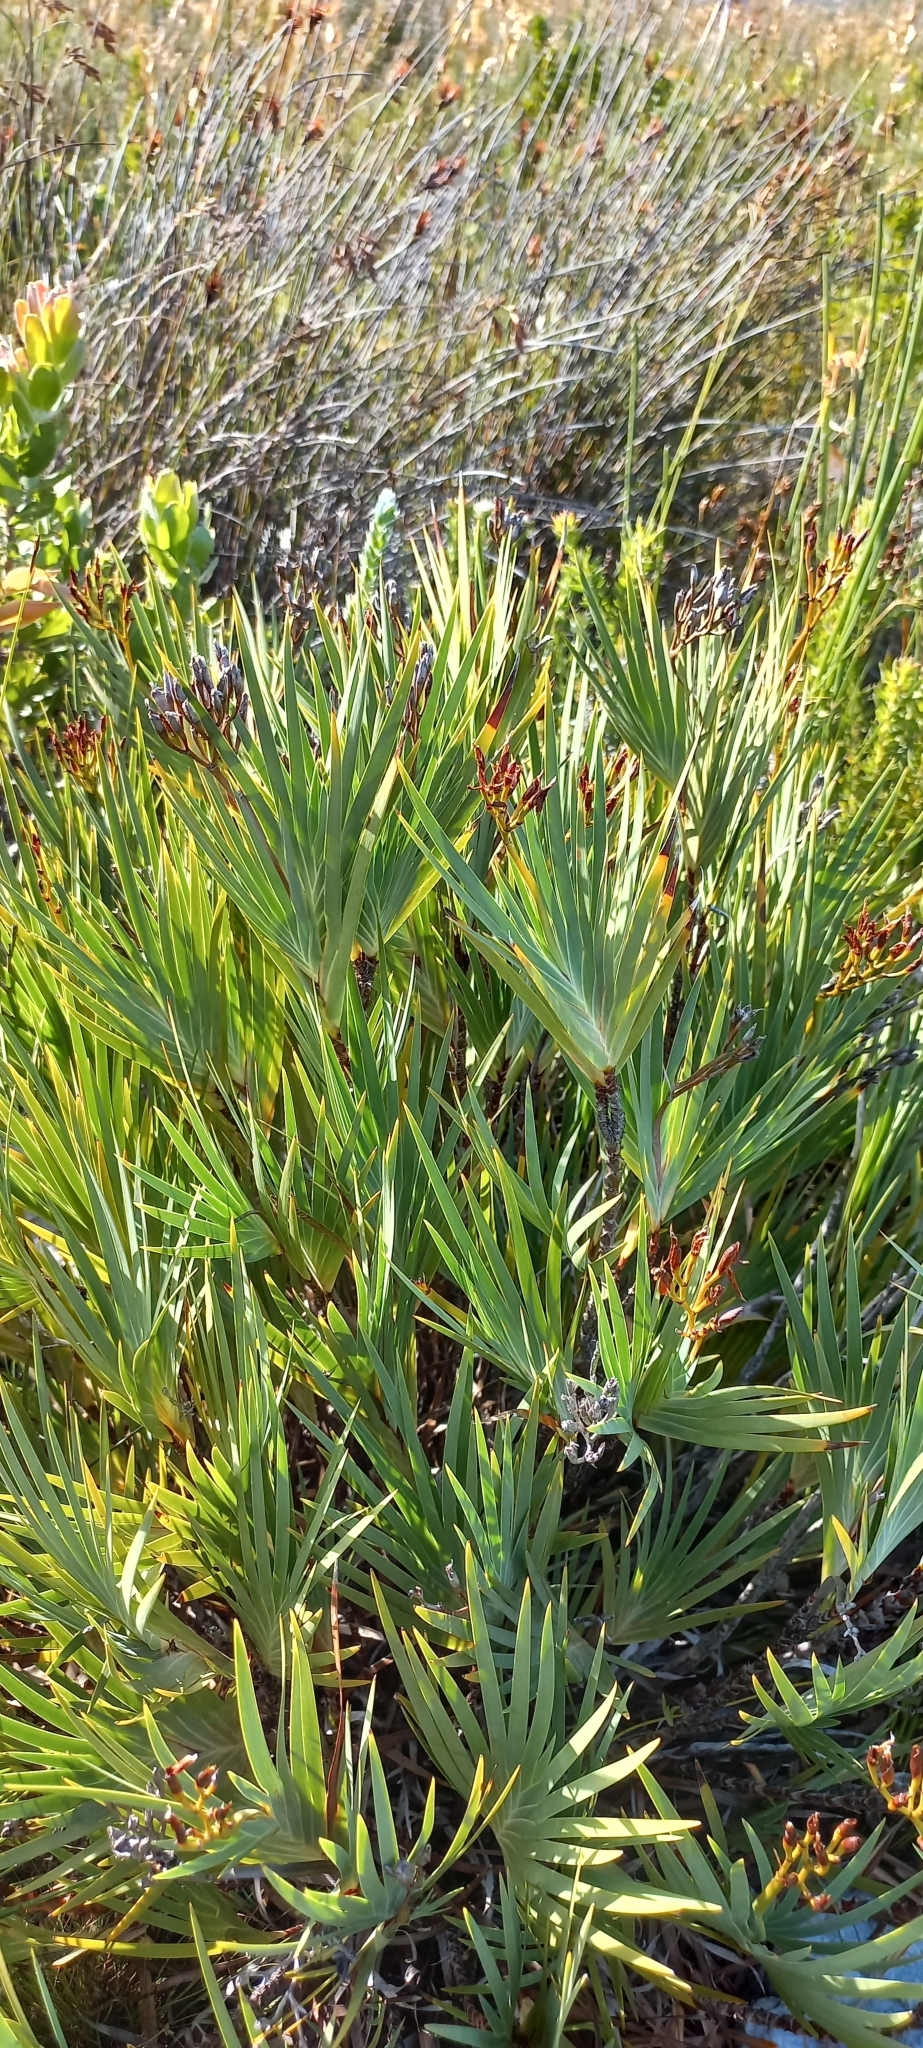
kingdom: Plantae
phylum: Tracheophyta
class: Liliopsida
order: Asparagales
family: Iridaceae
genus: Nivenia
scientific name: Nivenia stokoei
